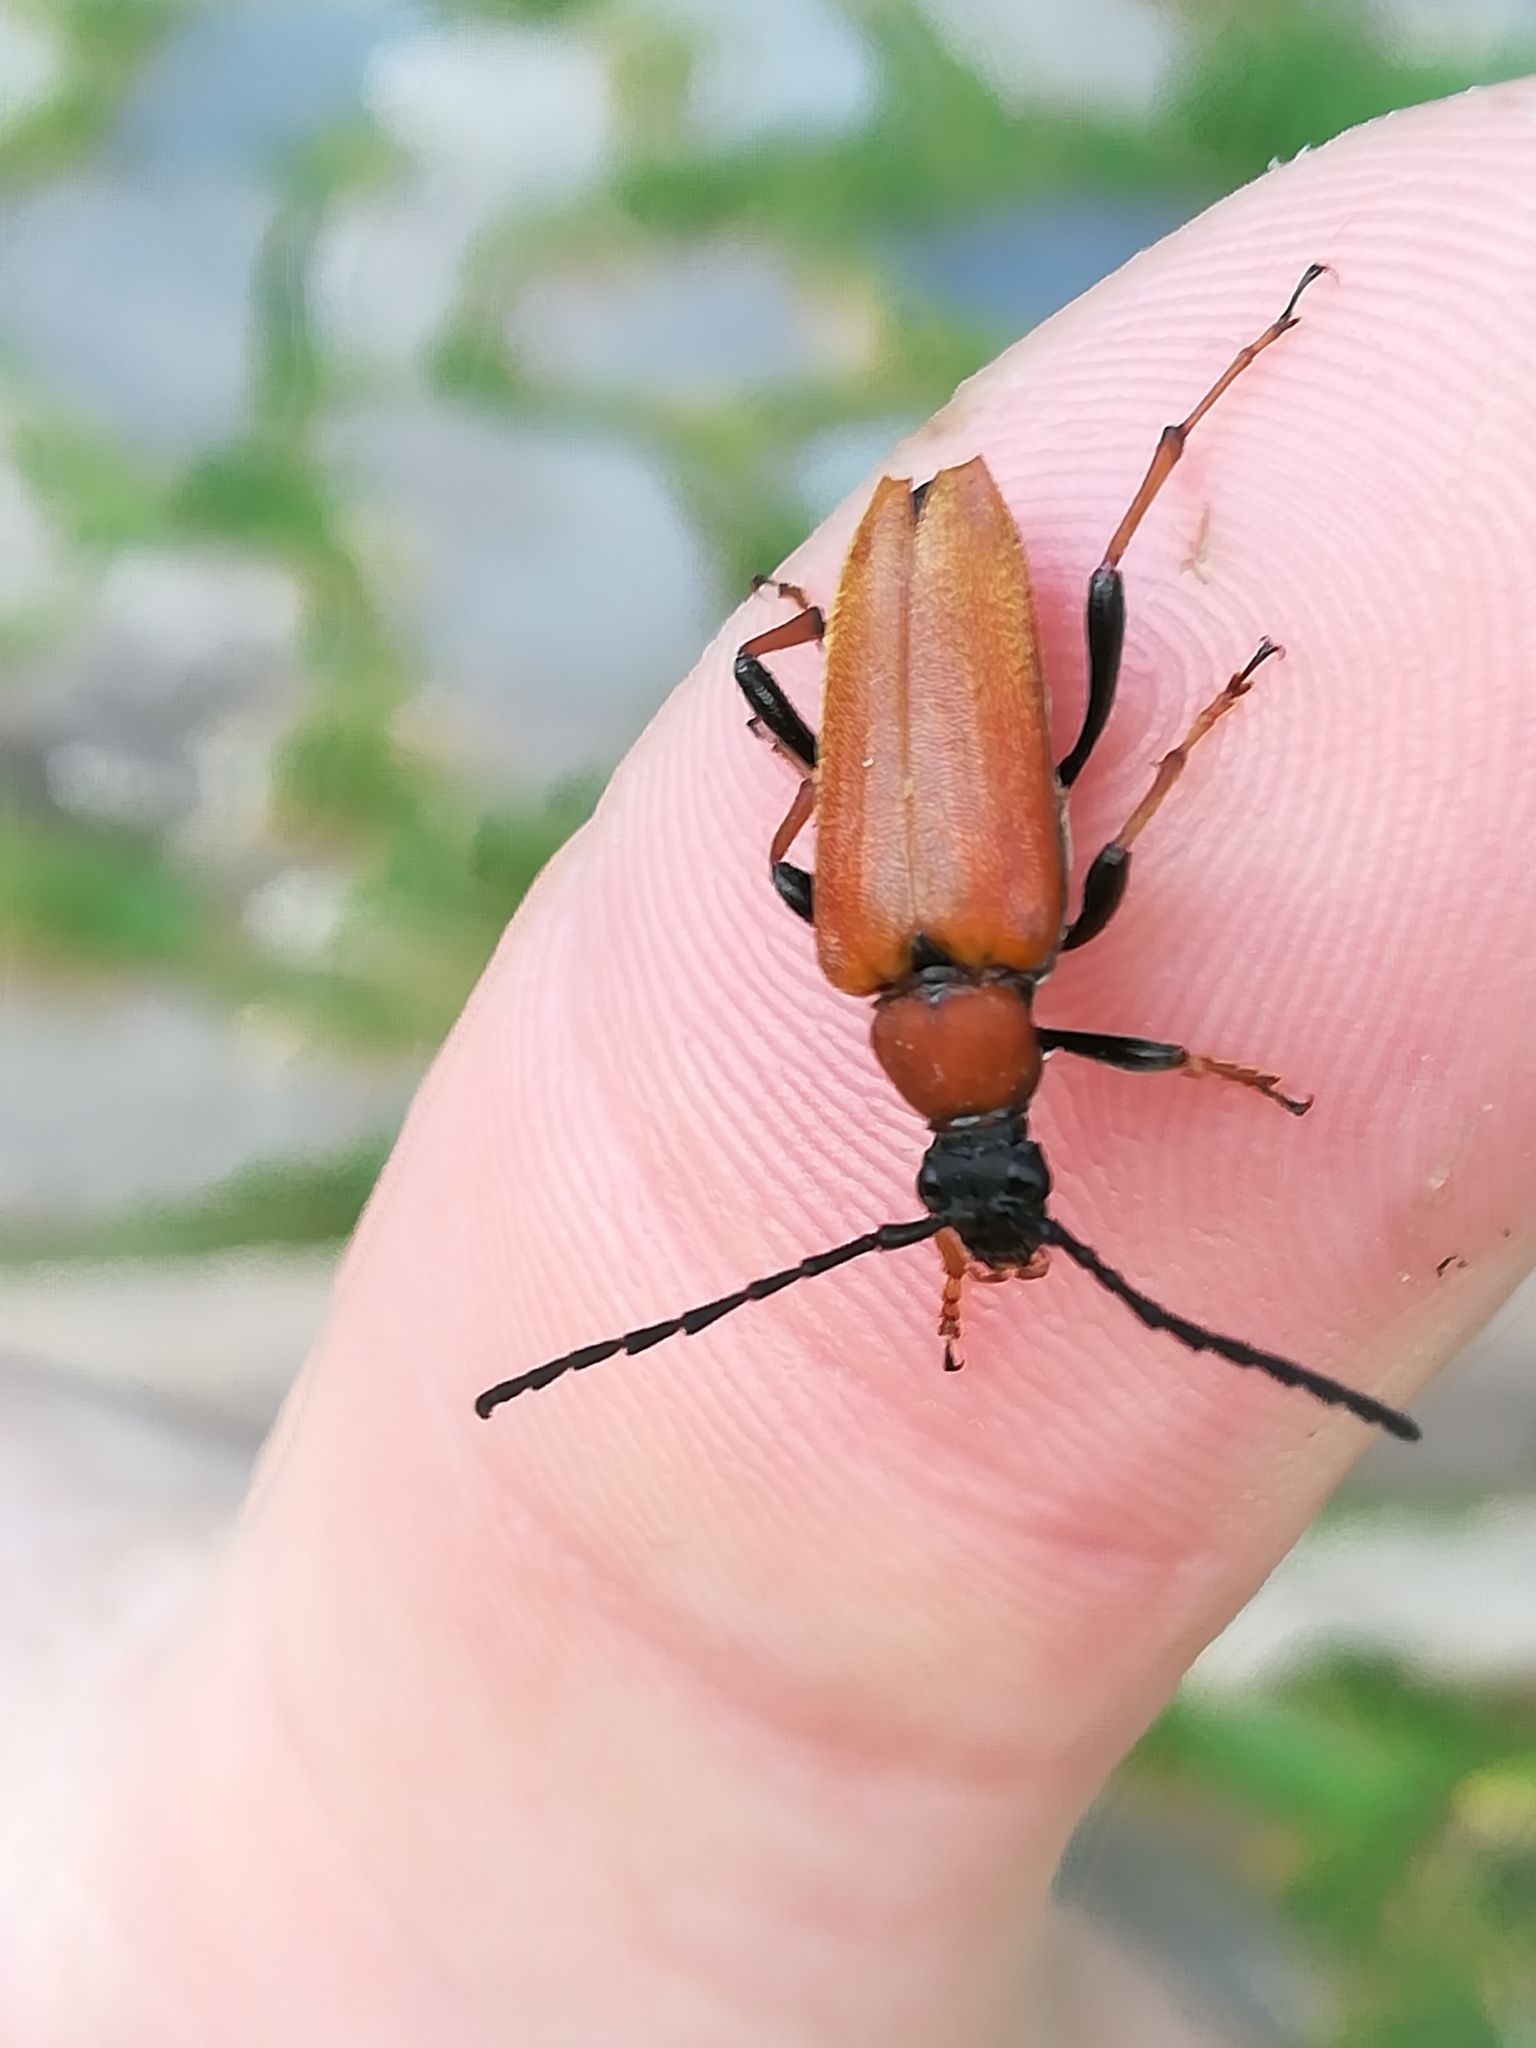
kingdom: Animalia
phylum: Arthropoda
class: Insecta
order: Coleoptera
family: Cerambycidae
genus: Stictoleptura
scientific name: Stictoleptura rubra
